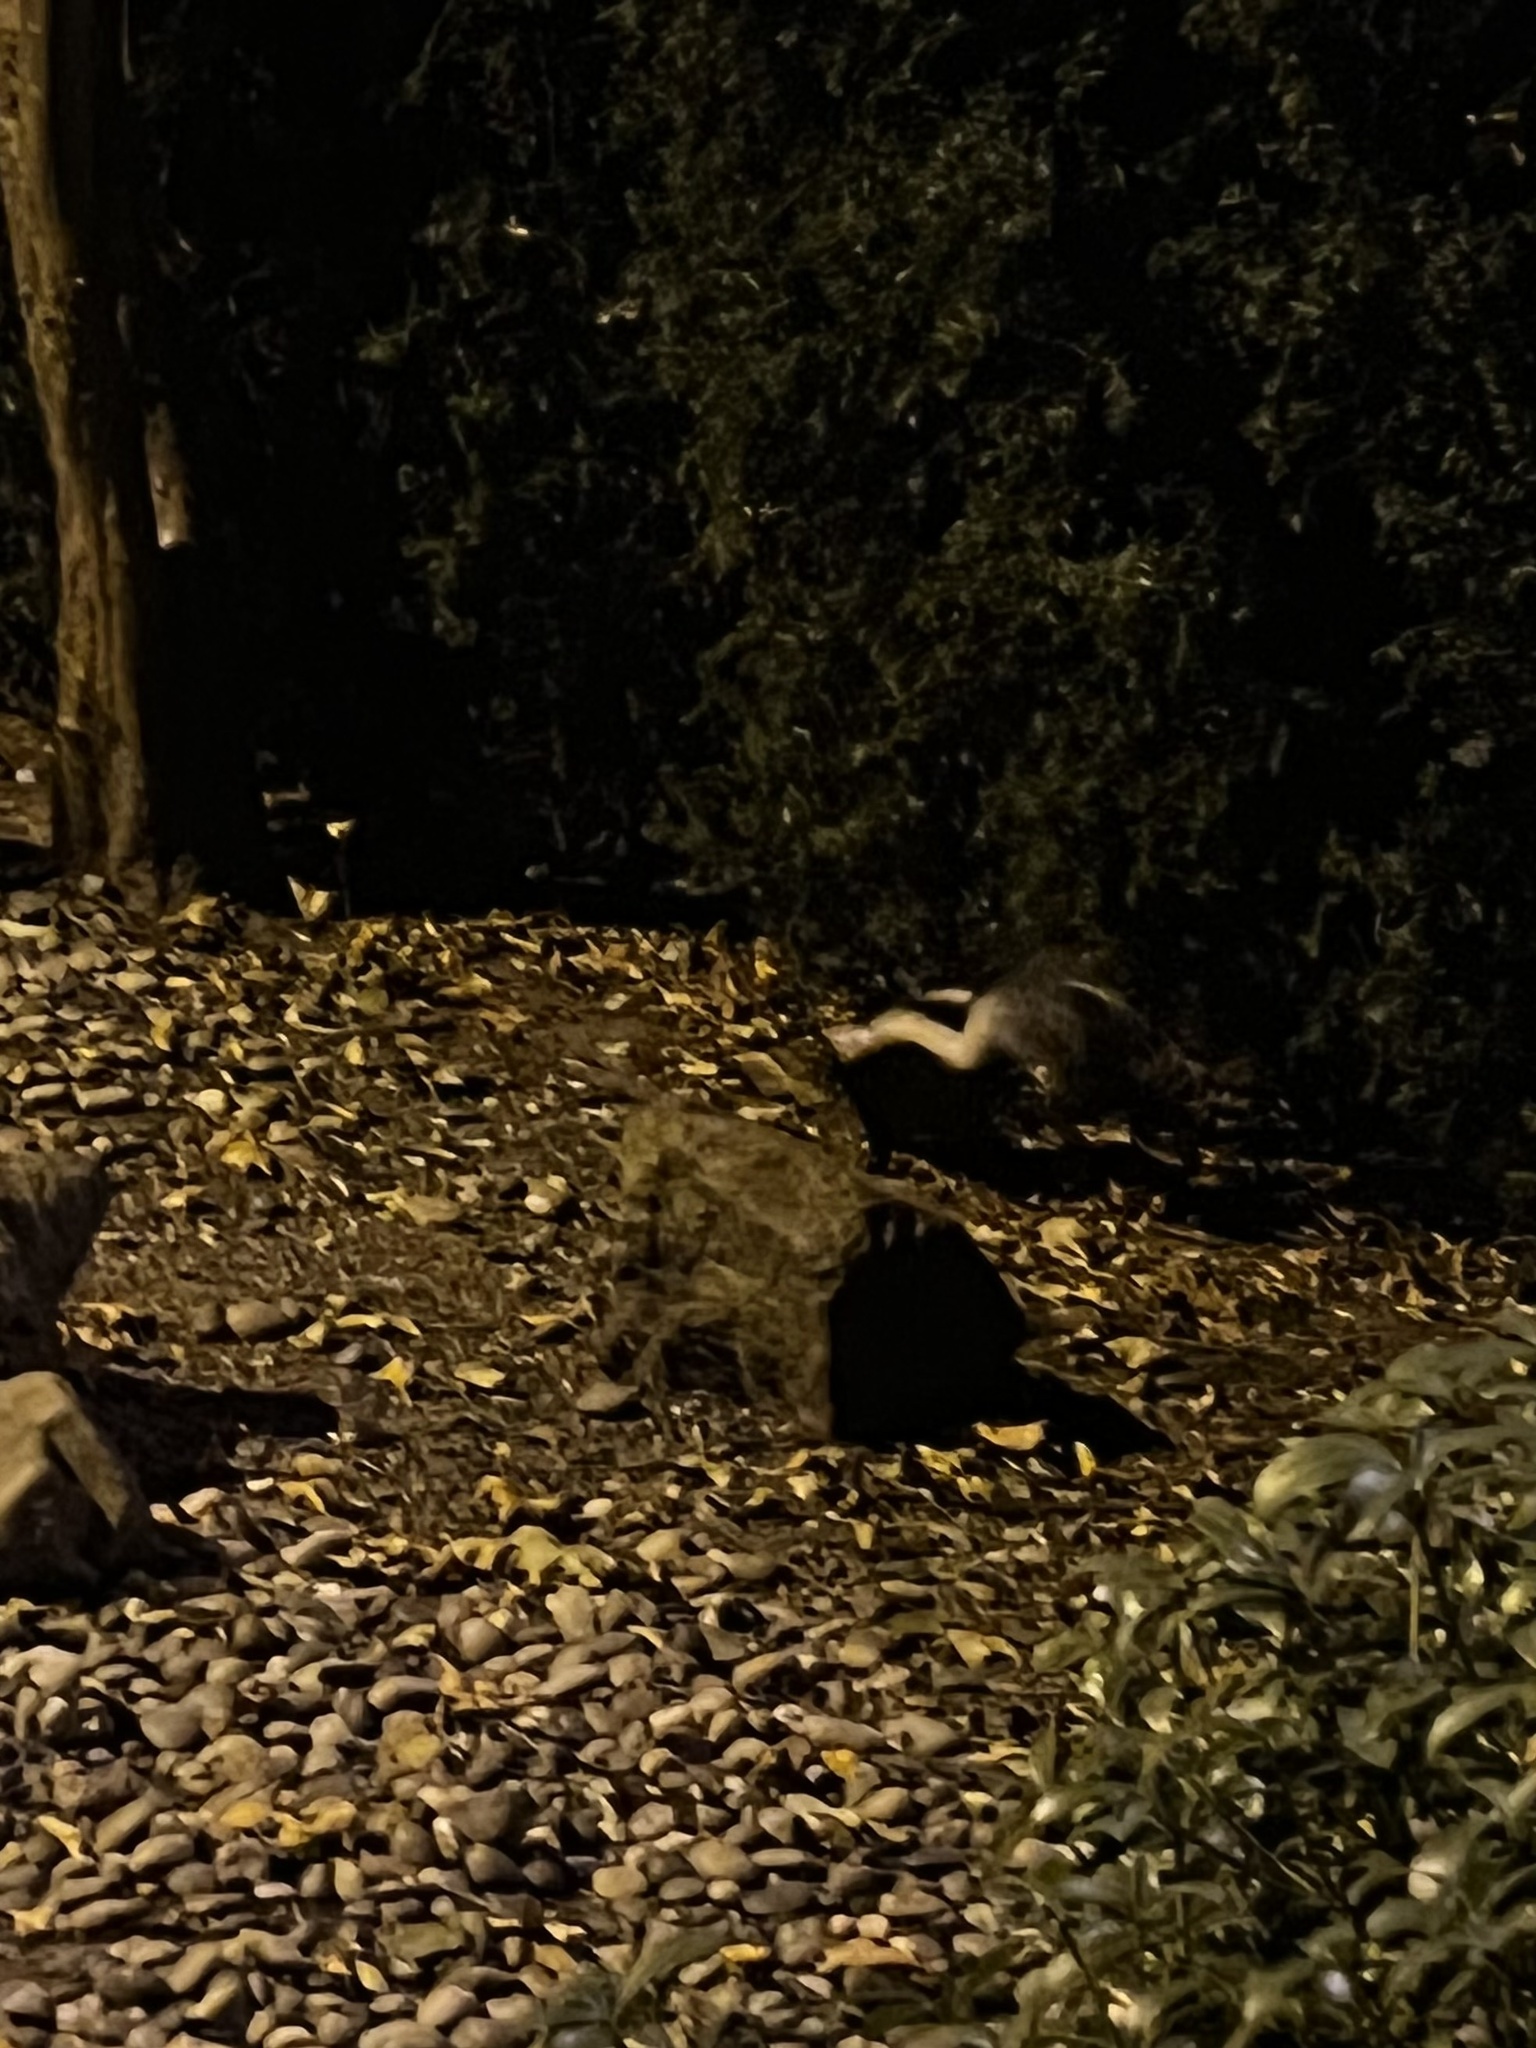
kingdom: Animalia
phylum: Chordata
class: Mammalia
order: Carnivora
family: Mephitidae
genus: Mephitis
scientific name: Mephitis mephitis
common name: Striped skunk
